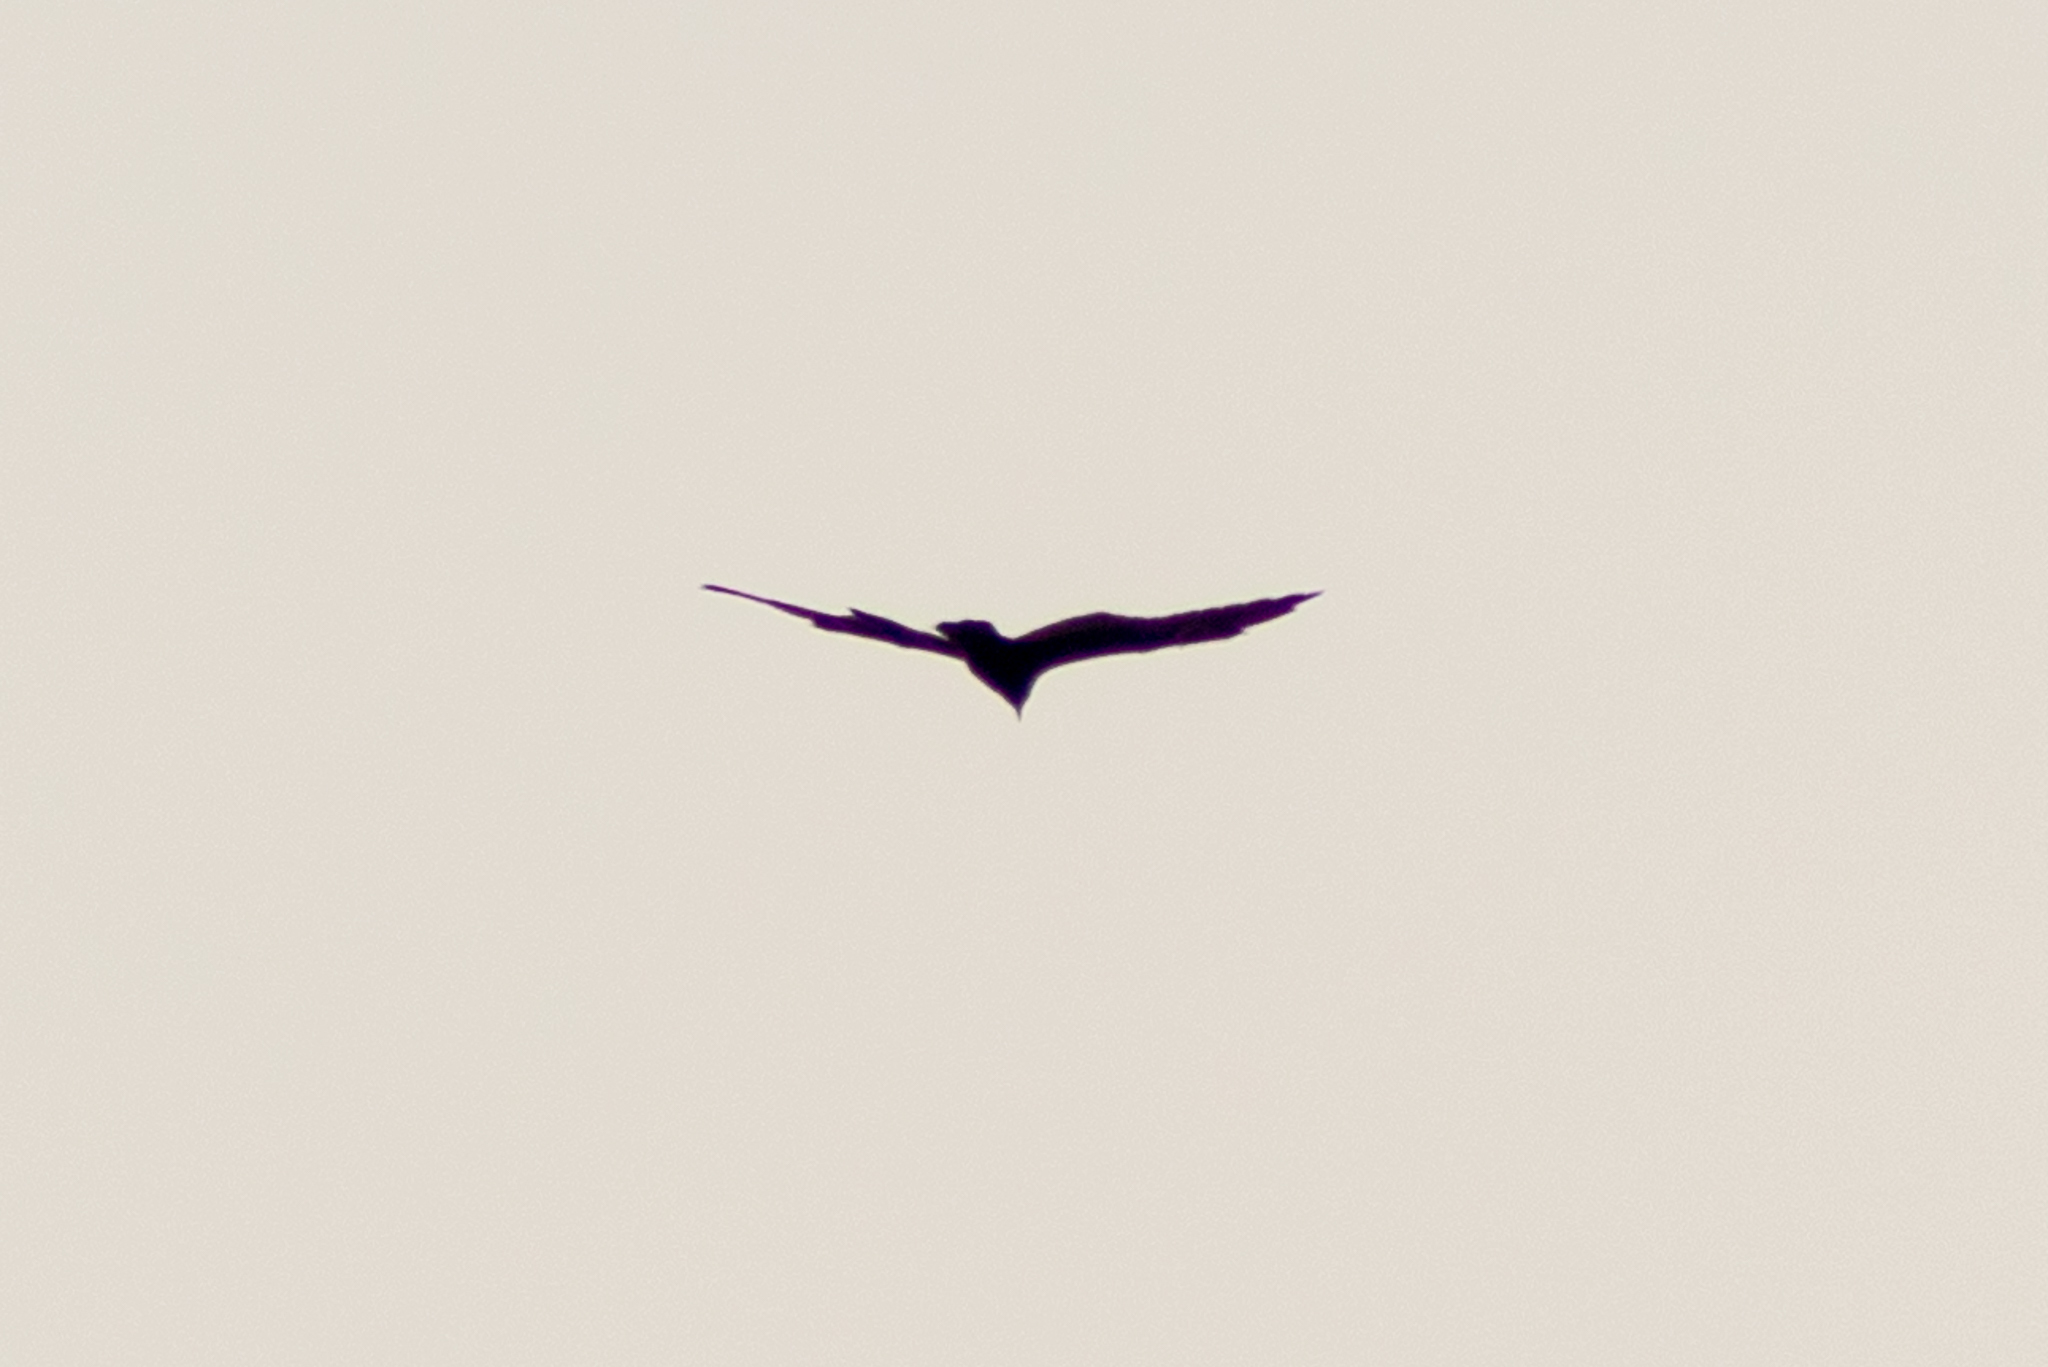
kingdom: Animalia
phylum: Chordata
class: Aves
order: Accipitriformes
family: Cathartidae
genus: Cathartes
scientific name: Cathartes aura
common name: Turkey vulture
